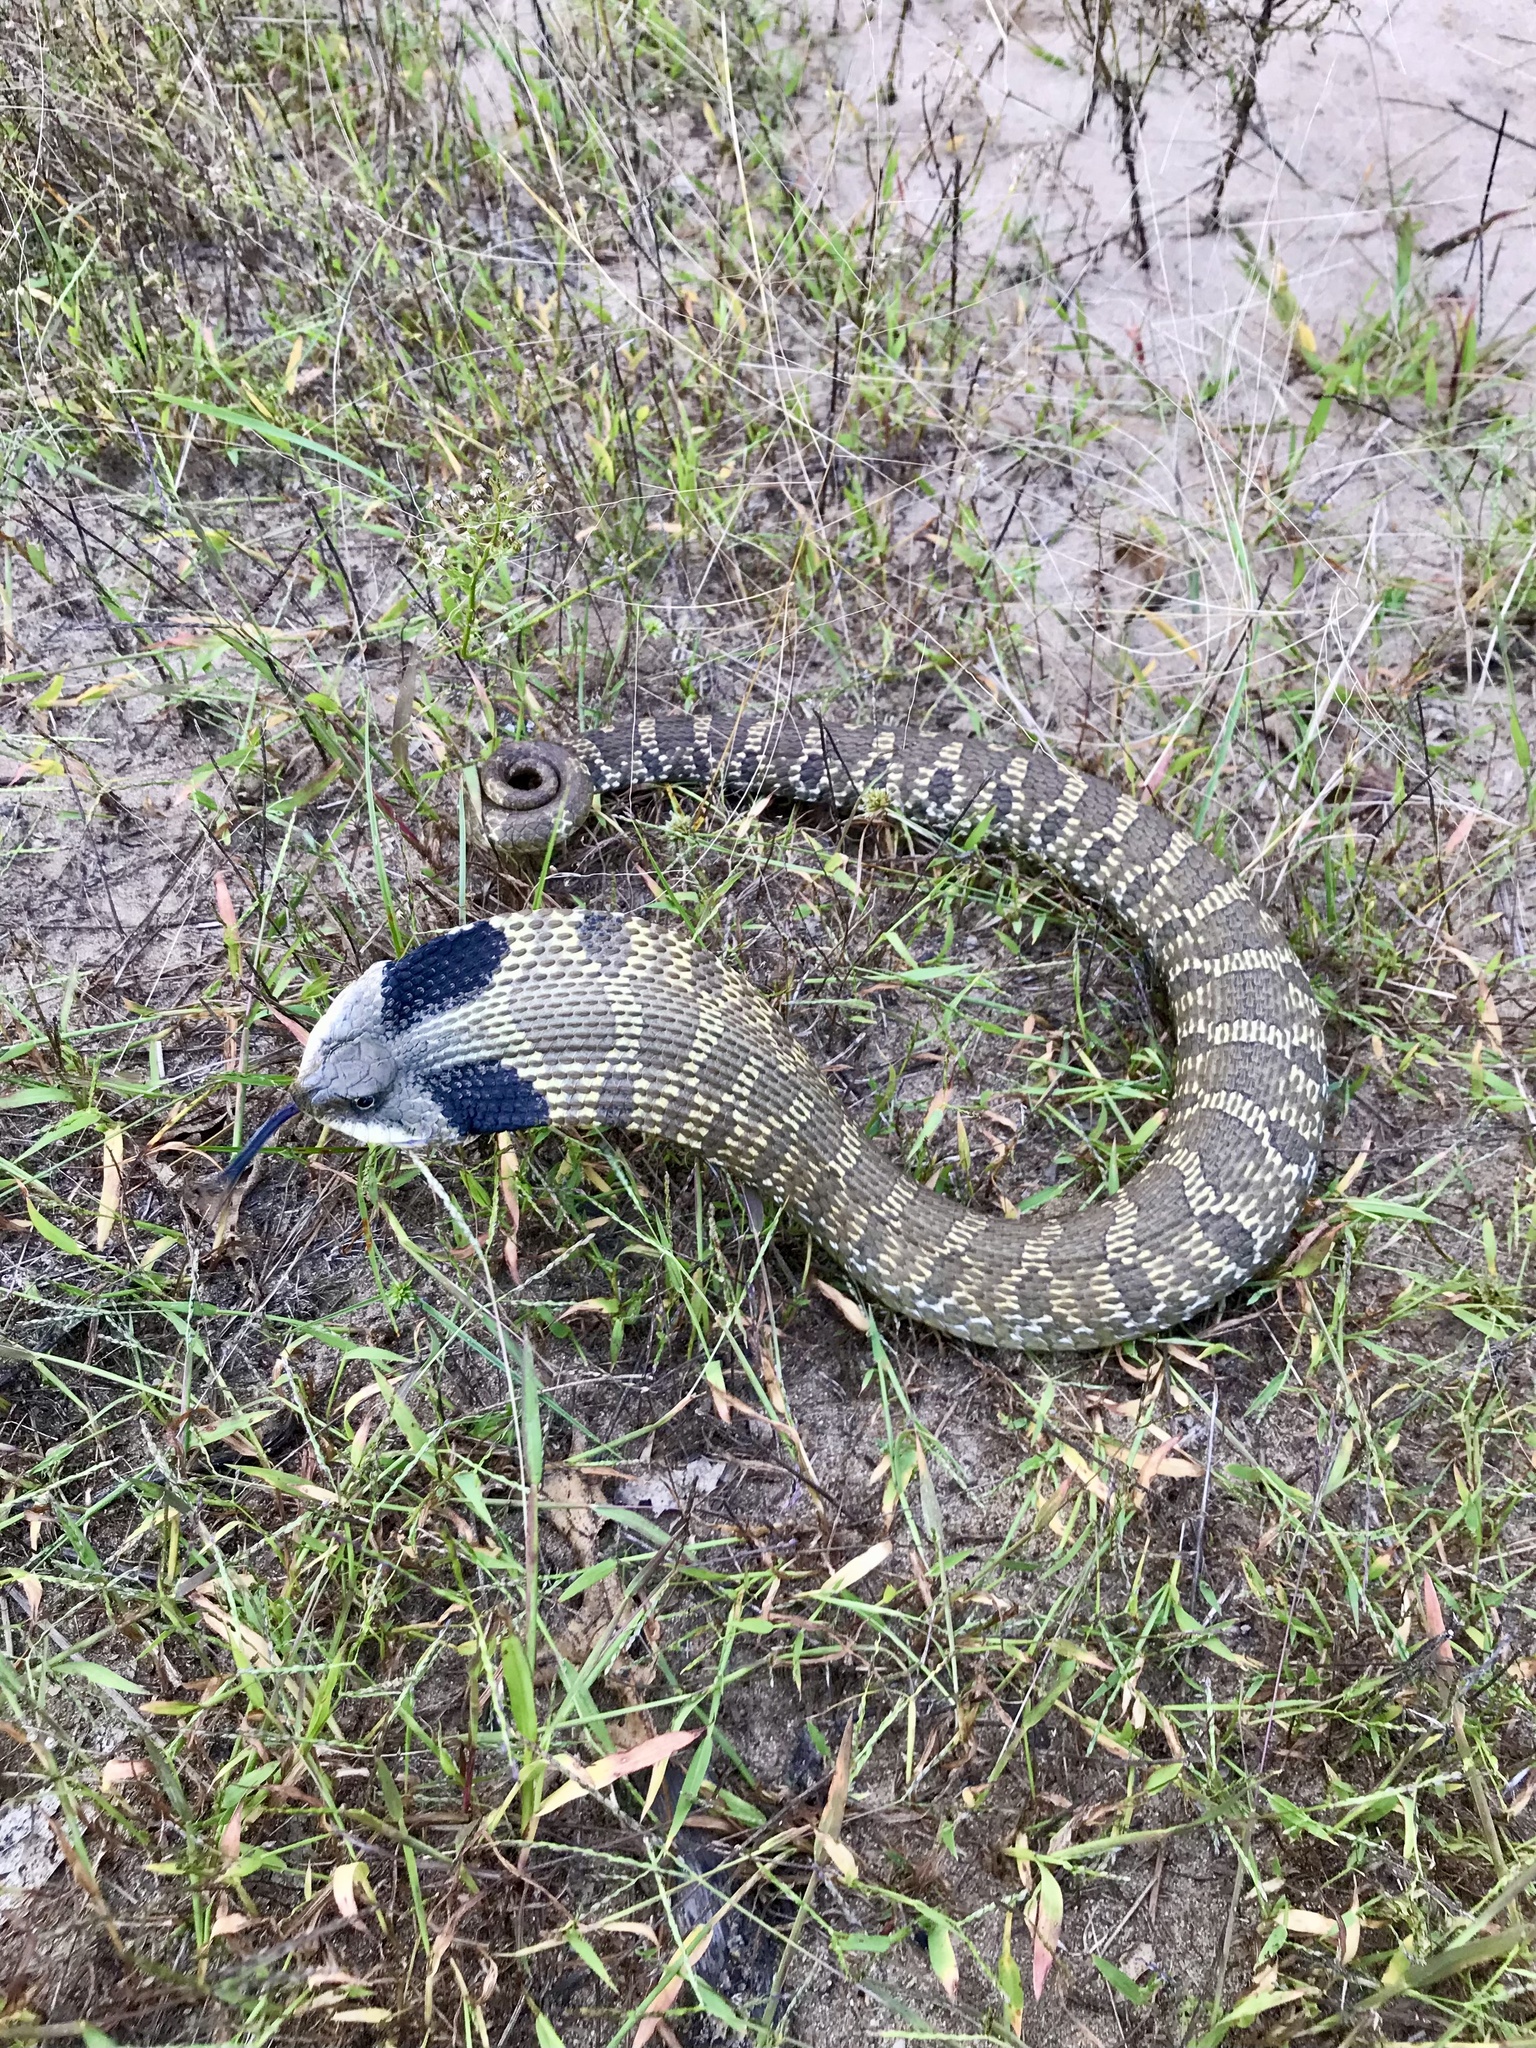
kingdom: Animalia
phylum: Chordata
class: Squamata
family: Colubridae
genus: Heterodon
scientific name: Heterodon platirhinos
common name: Eastern hognose snake
